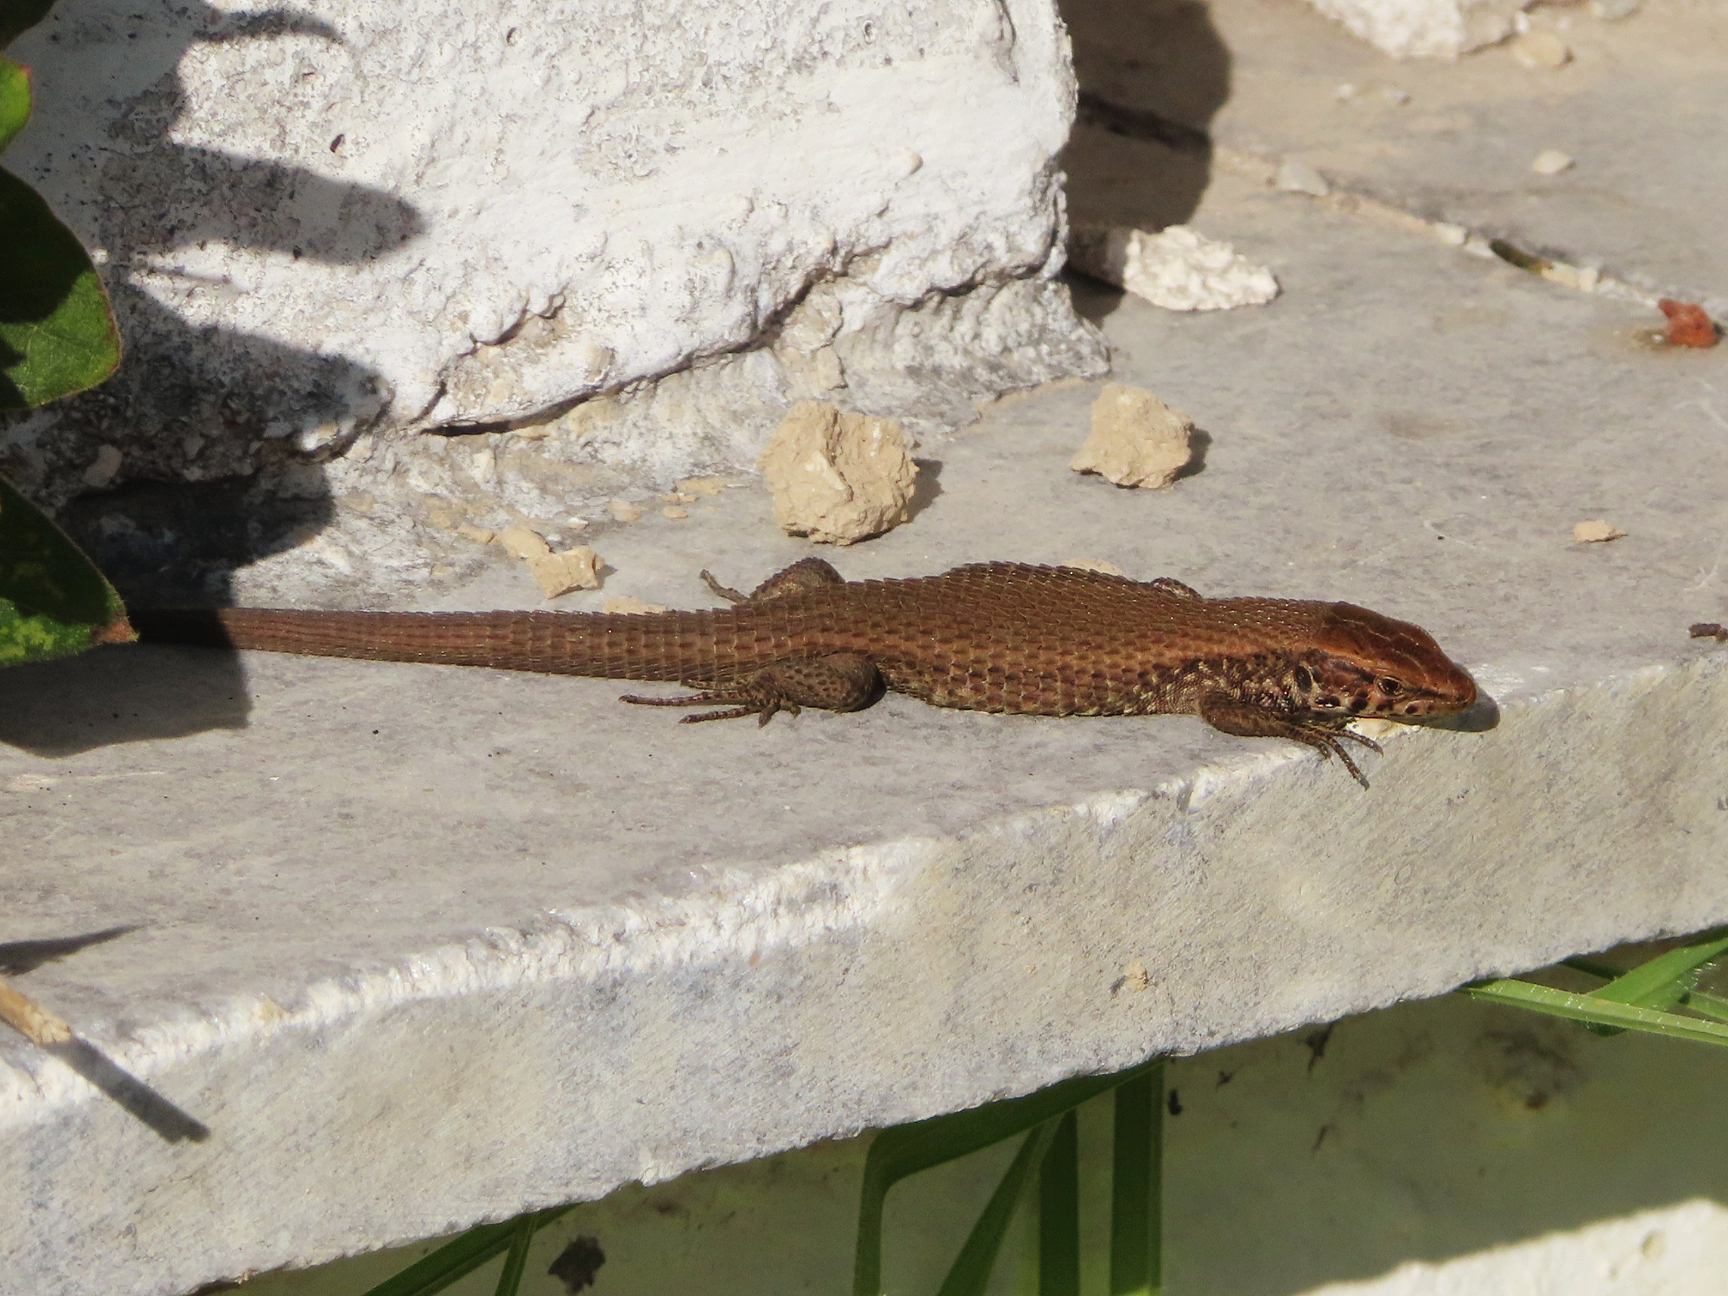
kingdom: Animalia
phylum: Chordata
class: Squamata
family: Lacertidae
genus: Algyroides
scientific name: Algyroides moreoticus
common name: Greek algyroides
